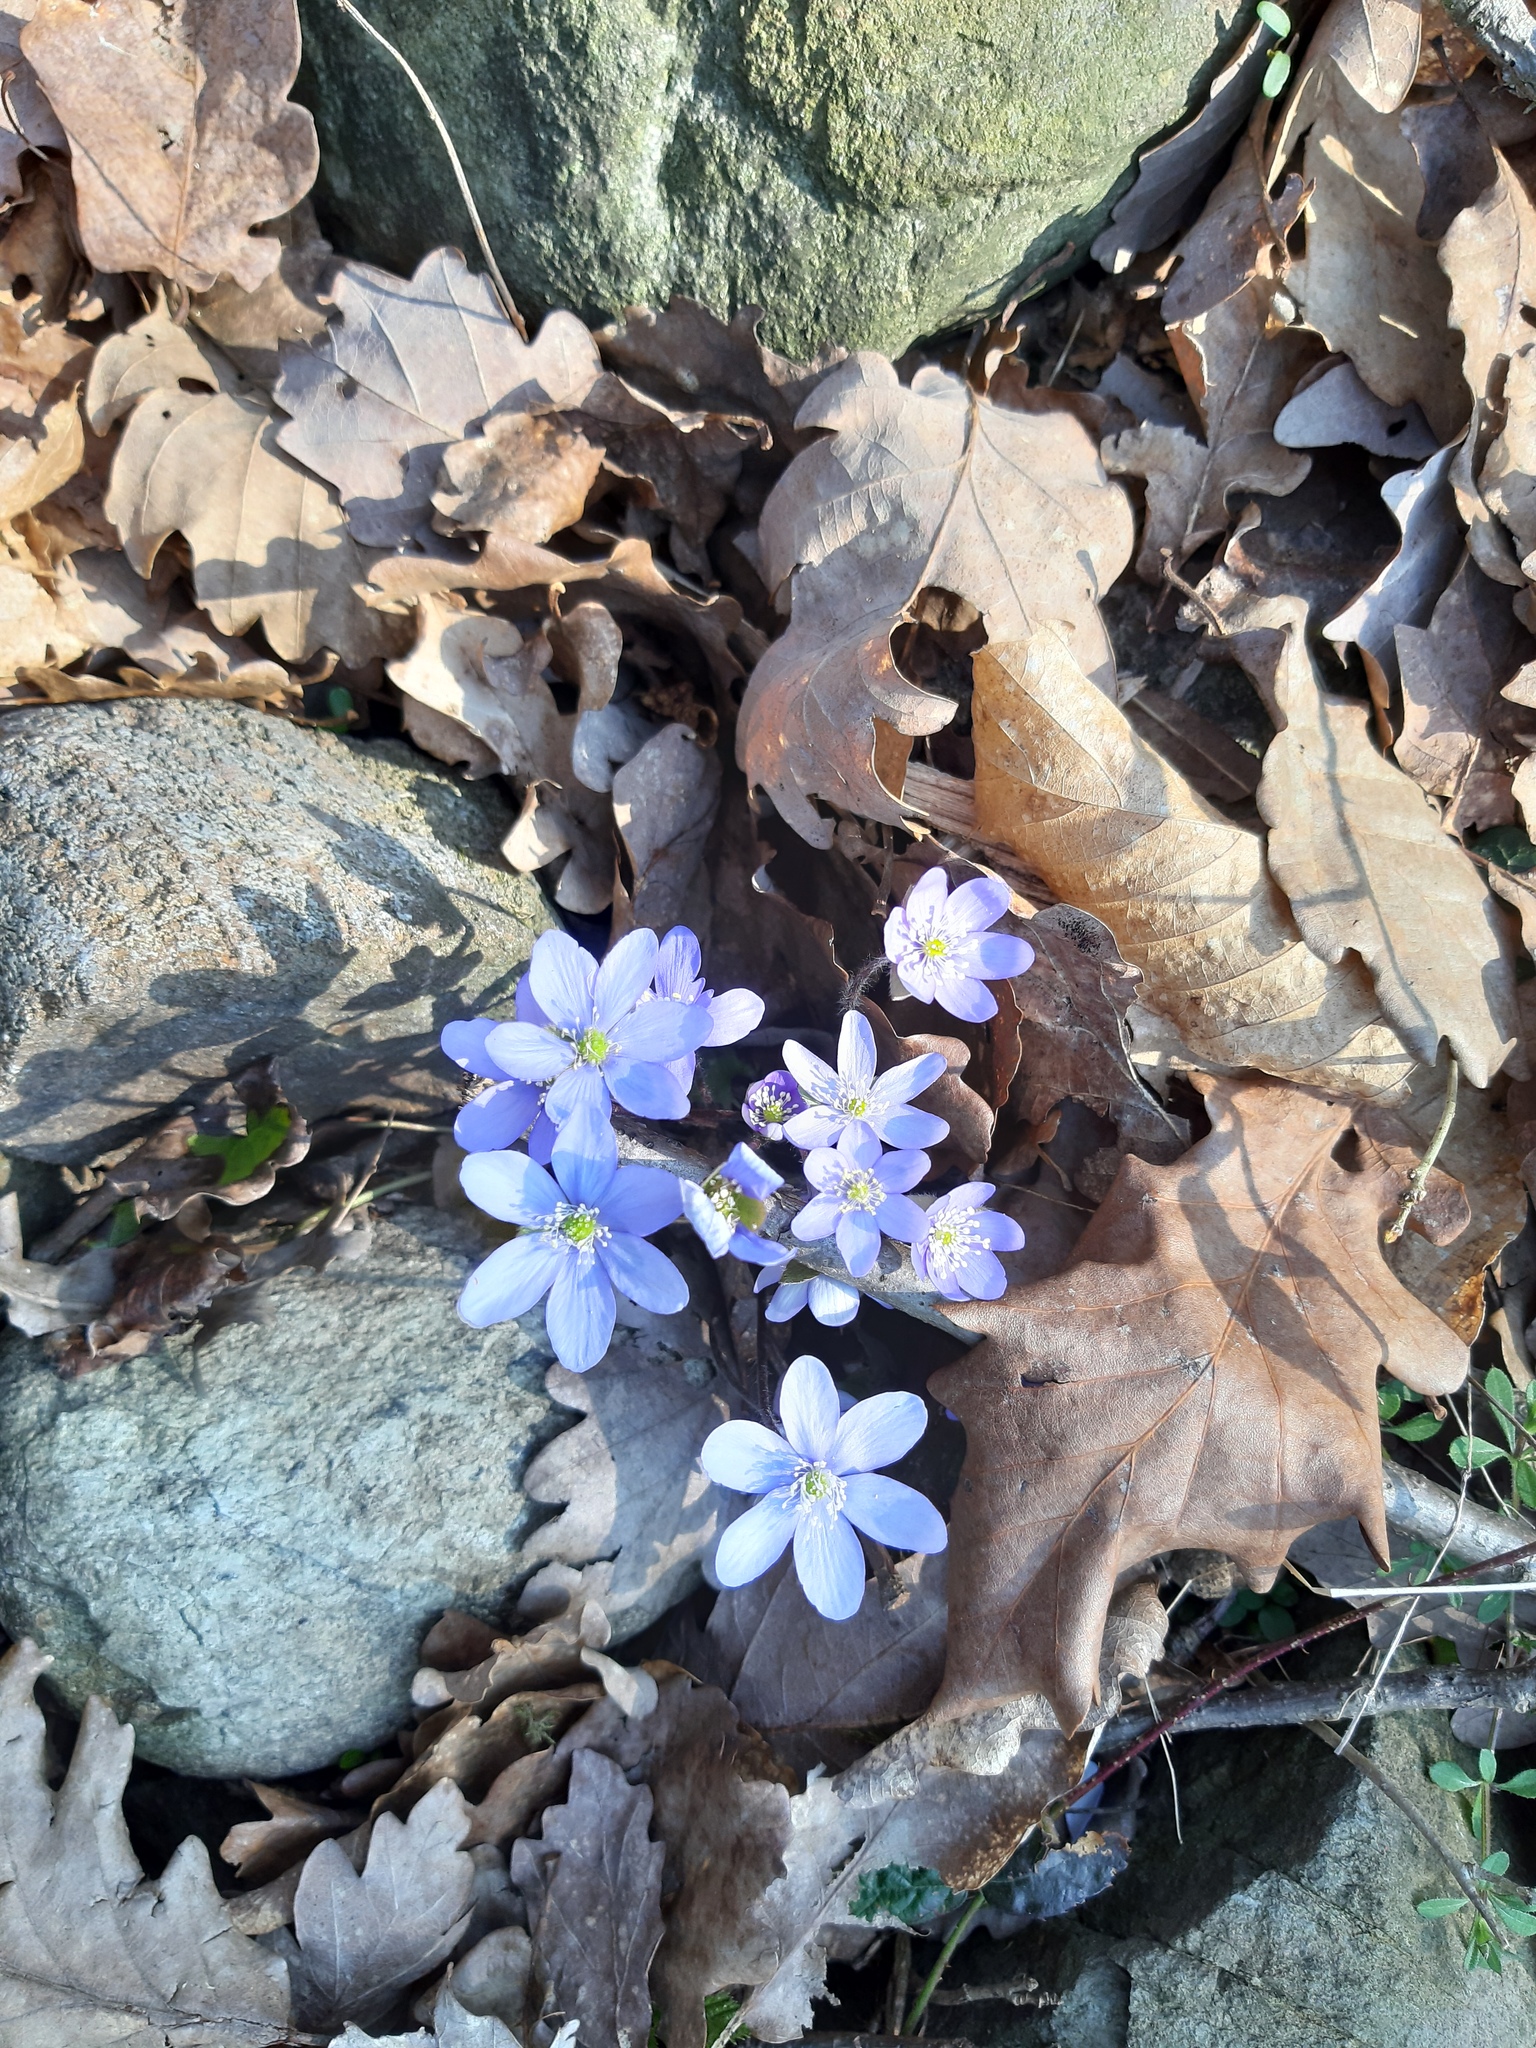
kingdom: Plantae
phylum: Tracheophyta
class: Magnoliopsida
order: Ranunculales
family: Ranunculaceae
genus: Hepatica
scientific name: Hepatica nobilis
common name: Liverleaf
